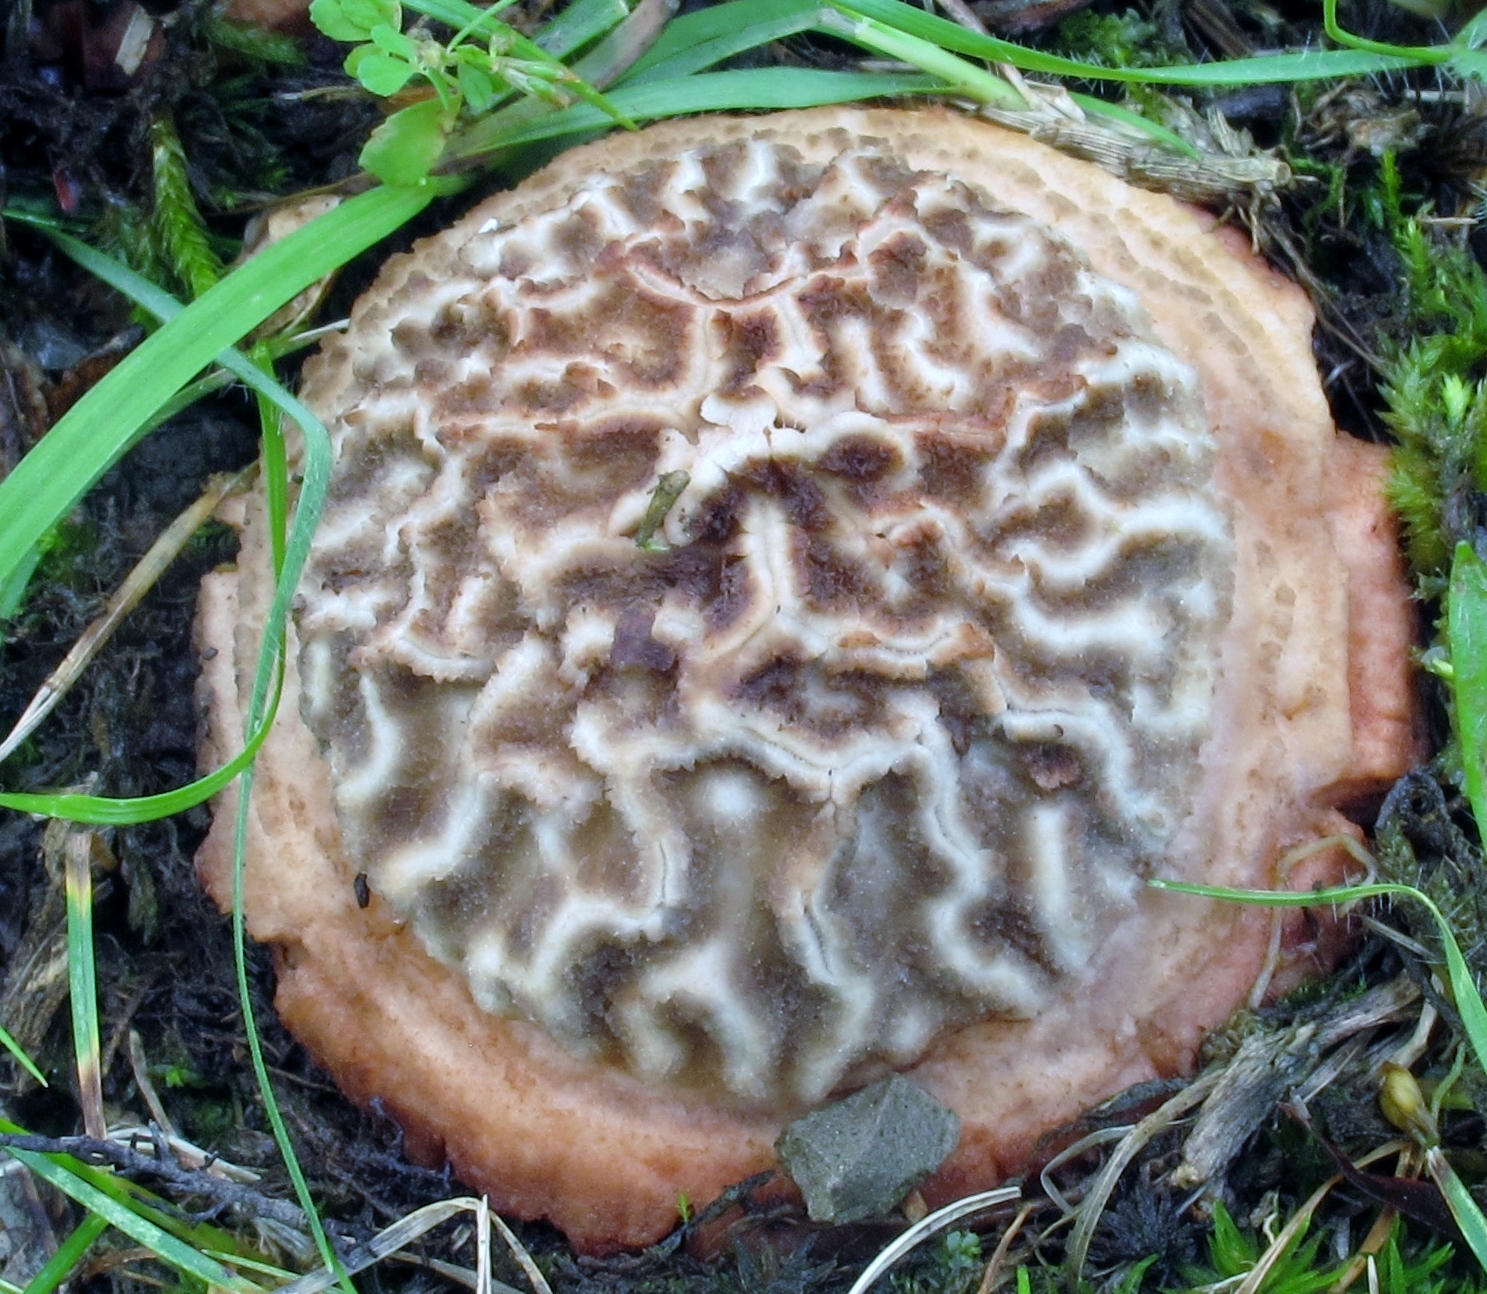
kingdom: Fungi
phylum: Basidiomycota
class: Agaricomycetes
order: Agaricales
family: Amanitaceae
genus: Amanita
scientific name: Amanita brunneolocularis
